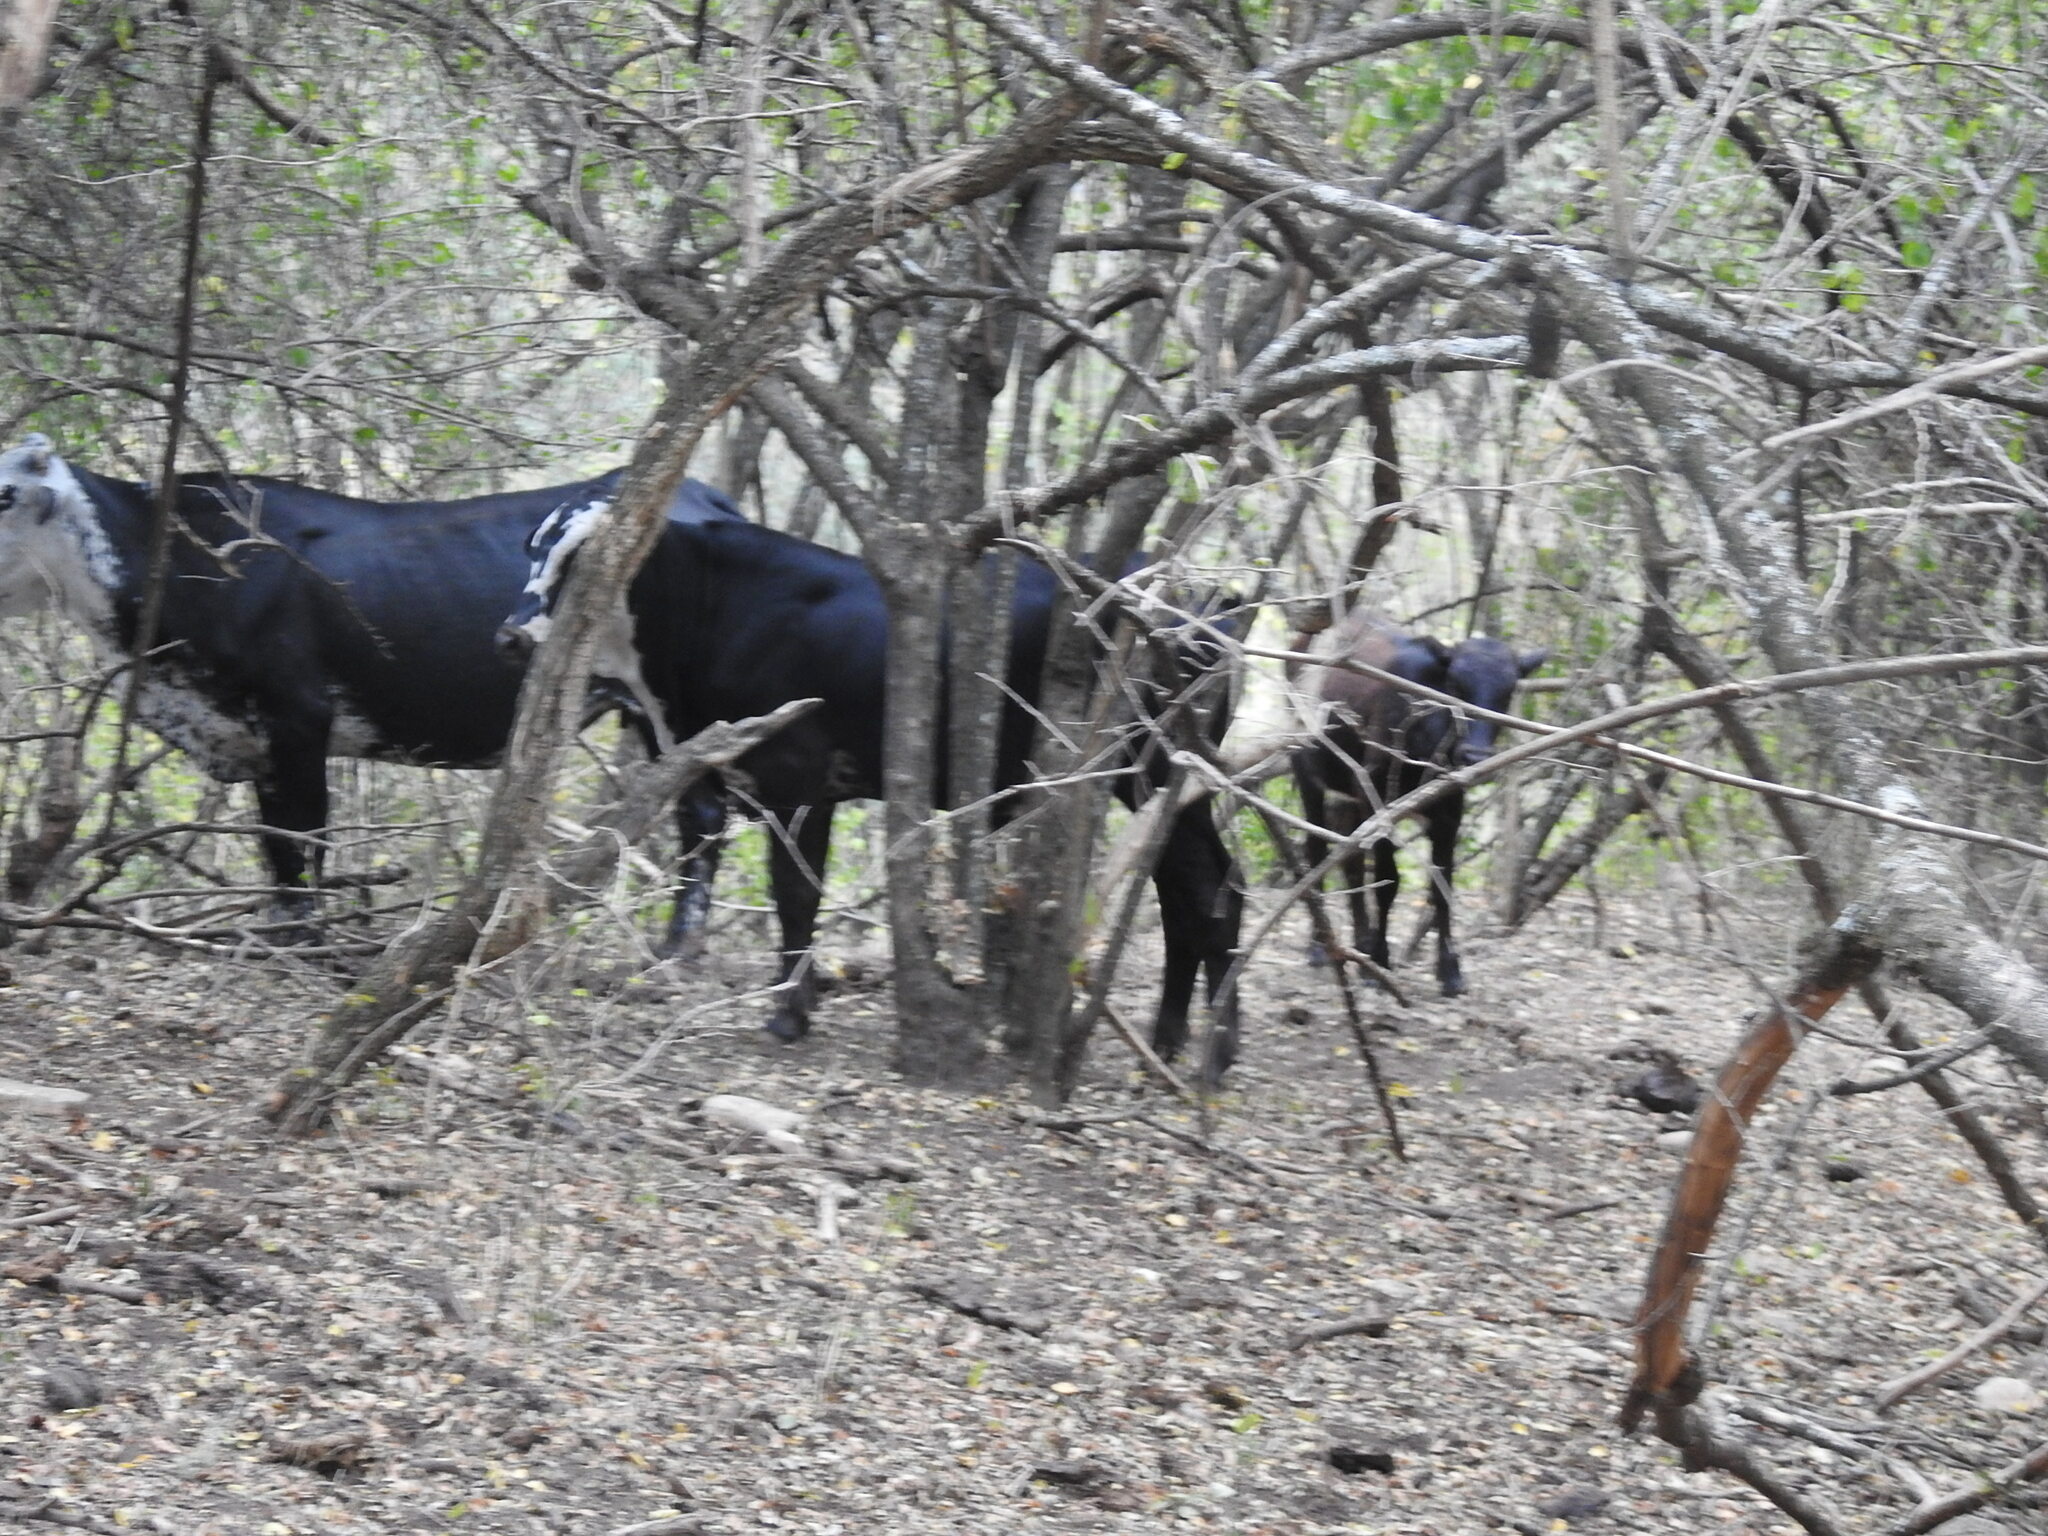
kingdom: Animalia
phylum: Chordata
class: Mammalia
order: Artiodactyla
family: Bovidae
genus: Bos
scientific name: Bos taurus
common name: Domesticated cattle
